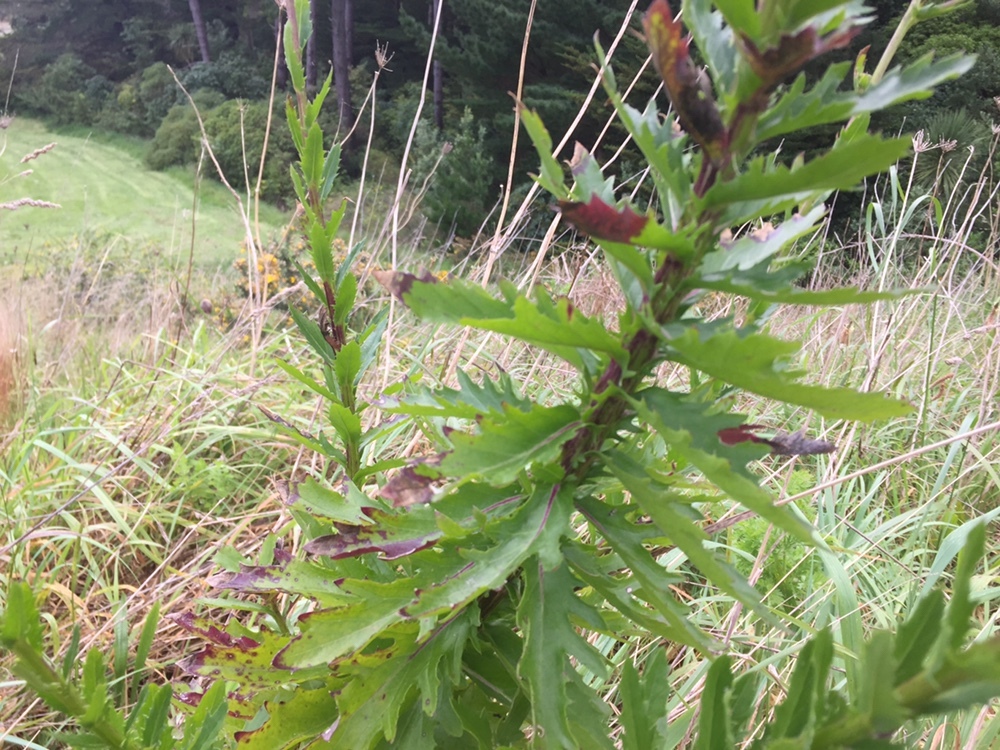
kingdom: Plantae
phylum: Tracheophyta
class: Magnoliopsida
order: Asterales
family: Asteraceae
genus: Senecio
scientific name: Senecio glastifolius
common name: Woad-leaved ragwort
